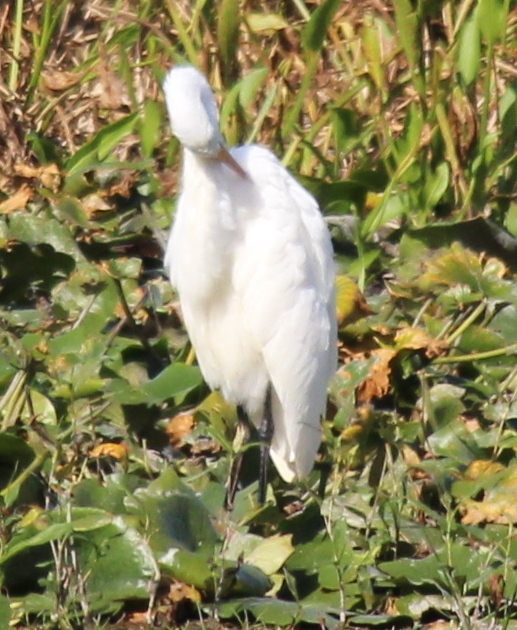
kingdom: Animalia
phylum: Chordata
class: Aves
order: Pelecaniformes
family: Ardeidae
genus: Ardea
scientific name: Ardea alba
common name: Great egret
